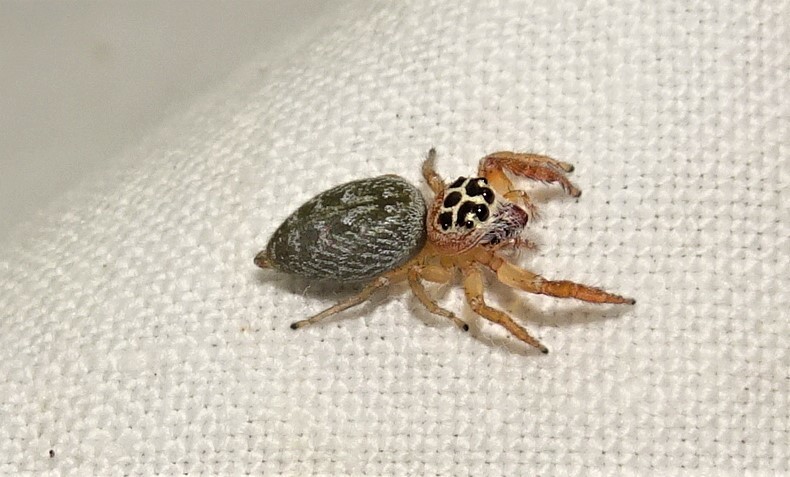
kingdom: Animalia
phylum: Arthropoda
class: Arachnida
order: Araneae
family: Salticidae
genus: Opisthoncus
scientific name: Opisthoncus polyphemus
